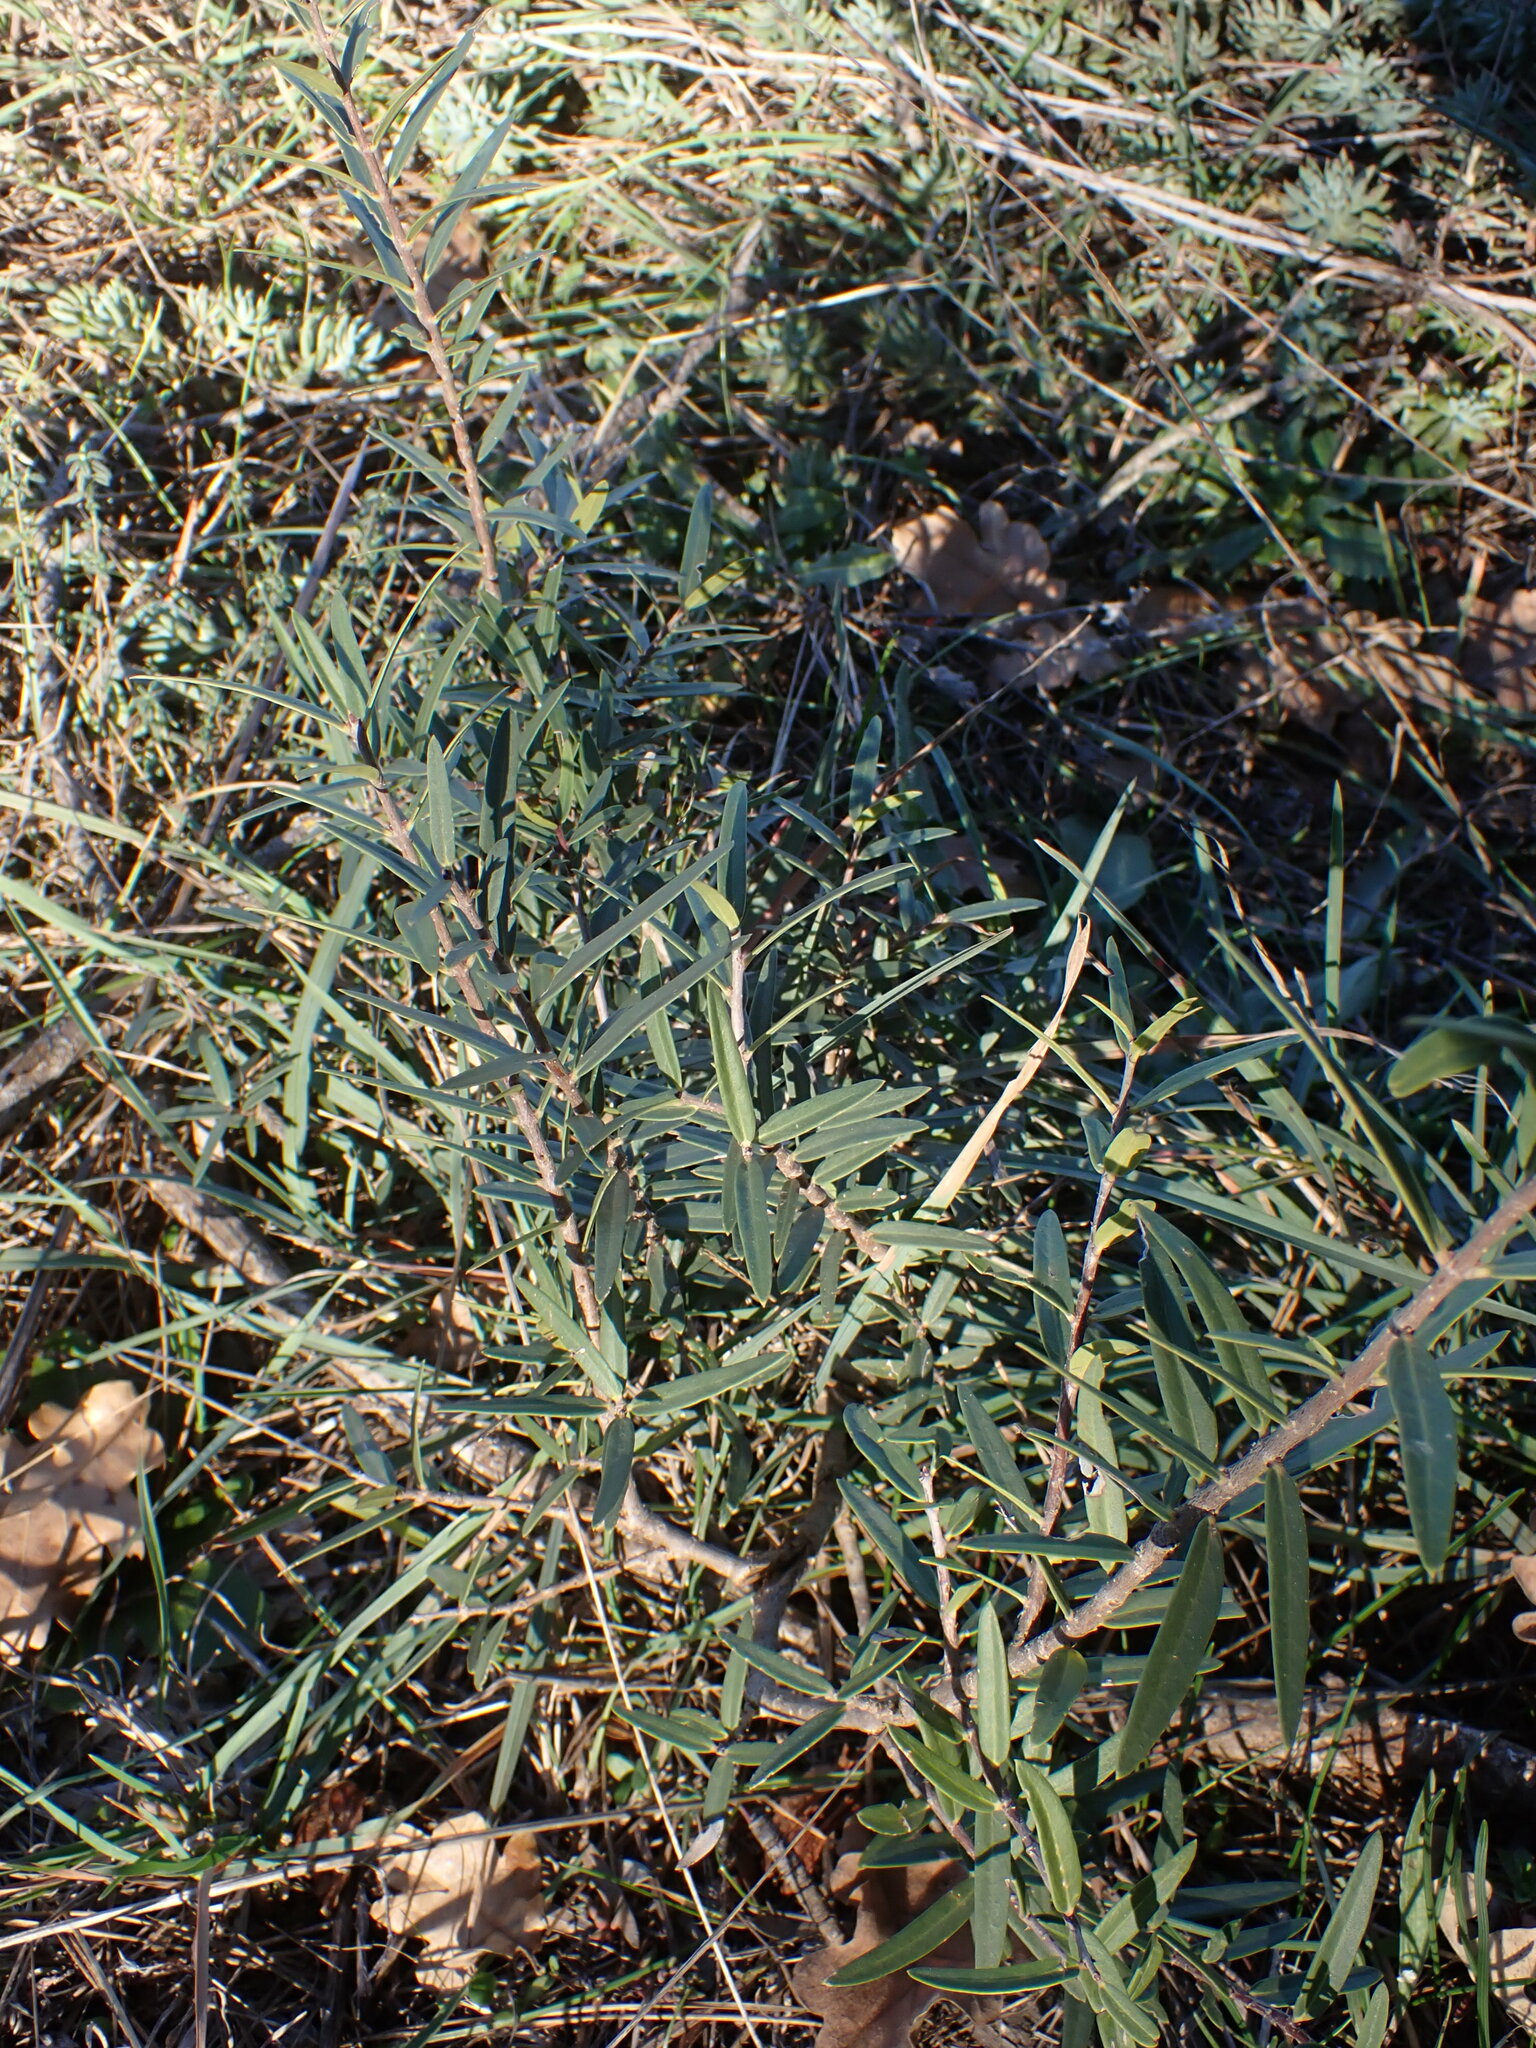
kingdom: Plantae
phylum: Tracheophyta
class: Magnoliopsida
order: Lamiales
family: Oleaceae
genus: Phillyrea
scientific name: Phillyrea angustifolia
